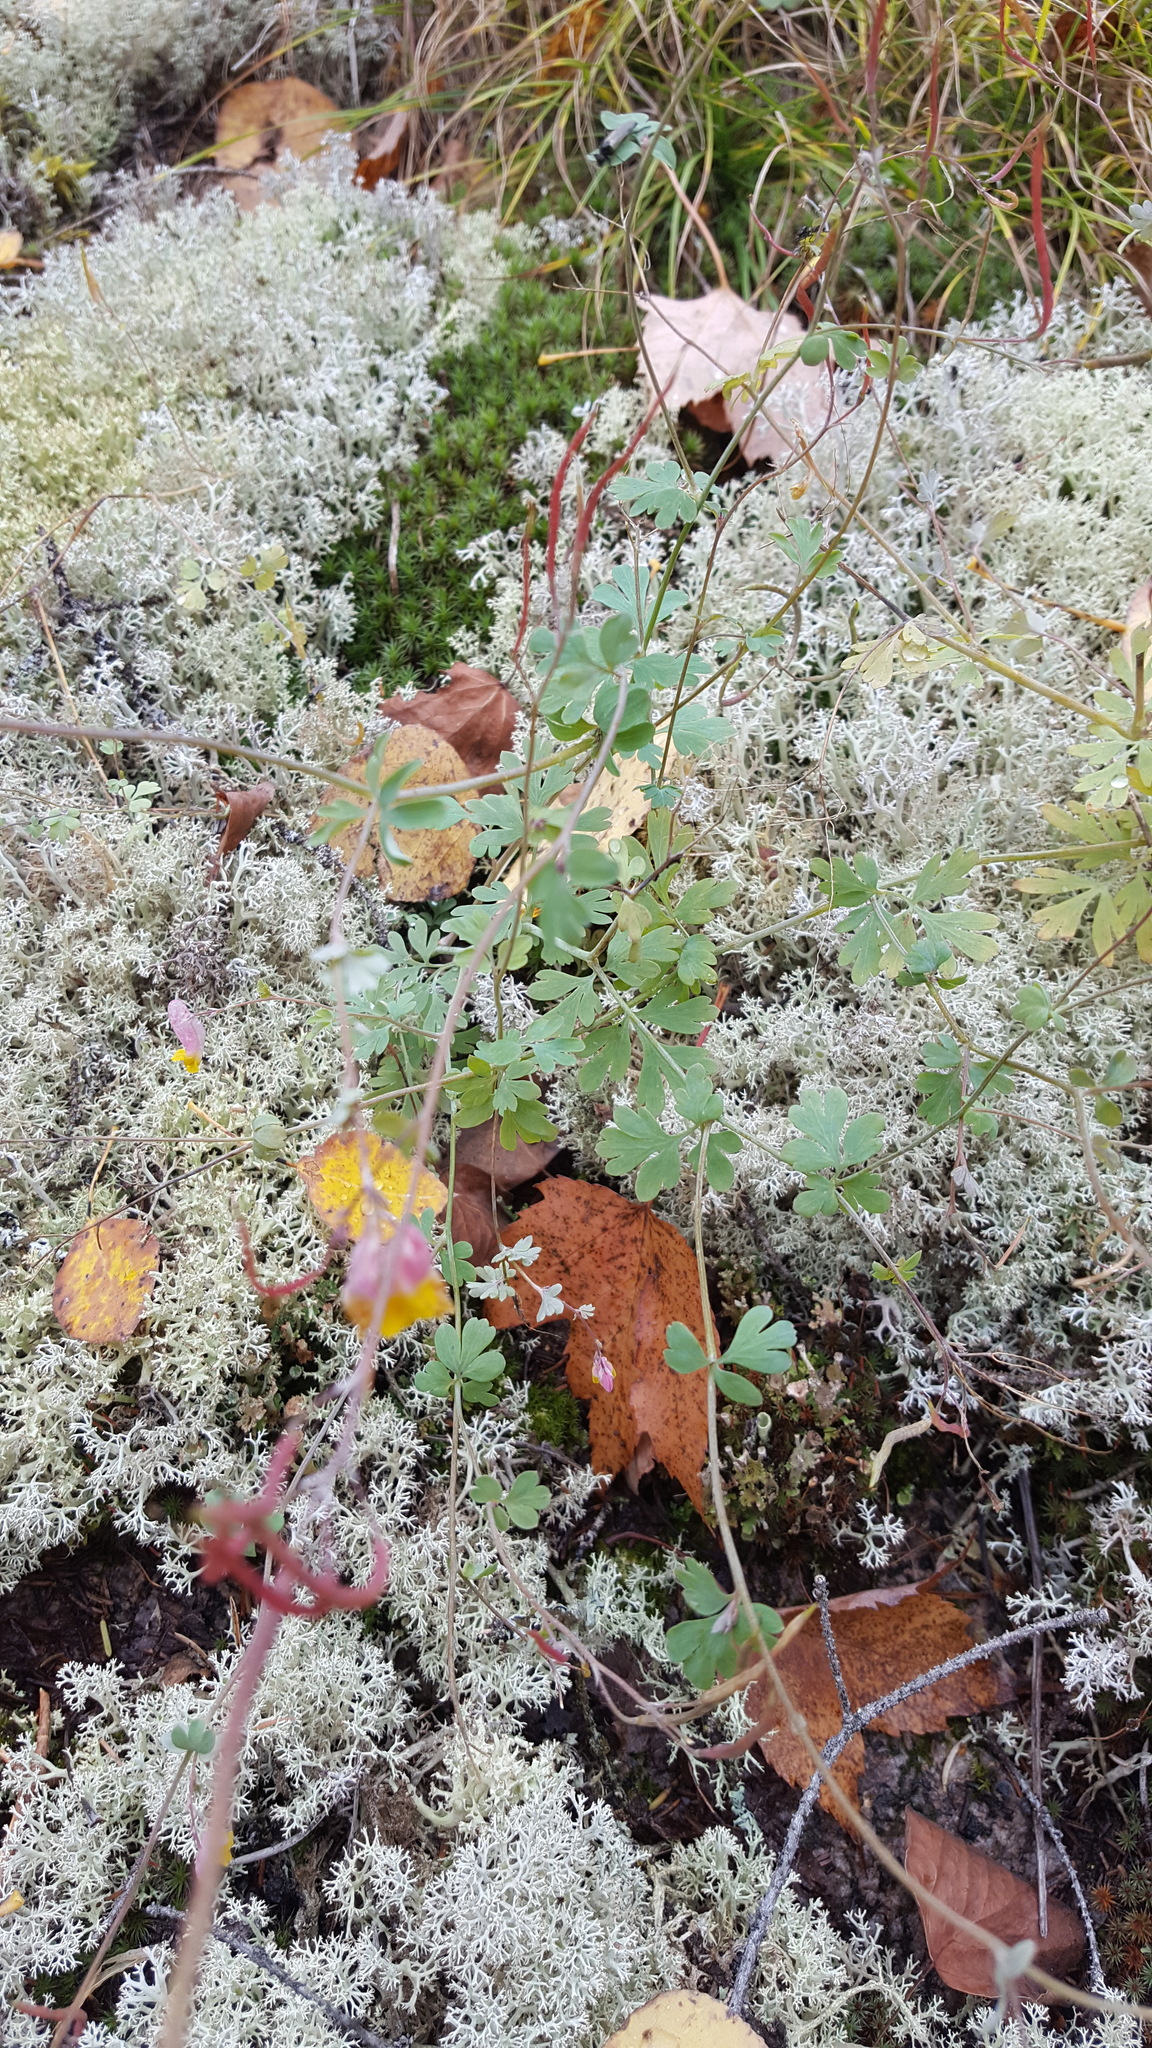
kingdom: Plantae
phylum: Tracheophyta
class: Magnoliopsida
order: Ranunculales
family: Papaveraceae
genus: Capnoides
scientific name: Capnoides sempervirens
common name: Rock harlequin
